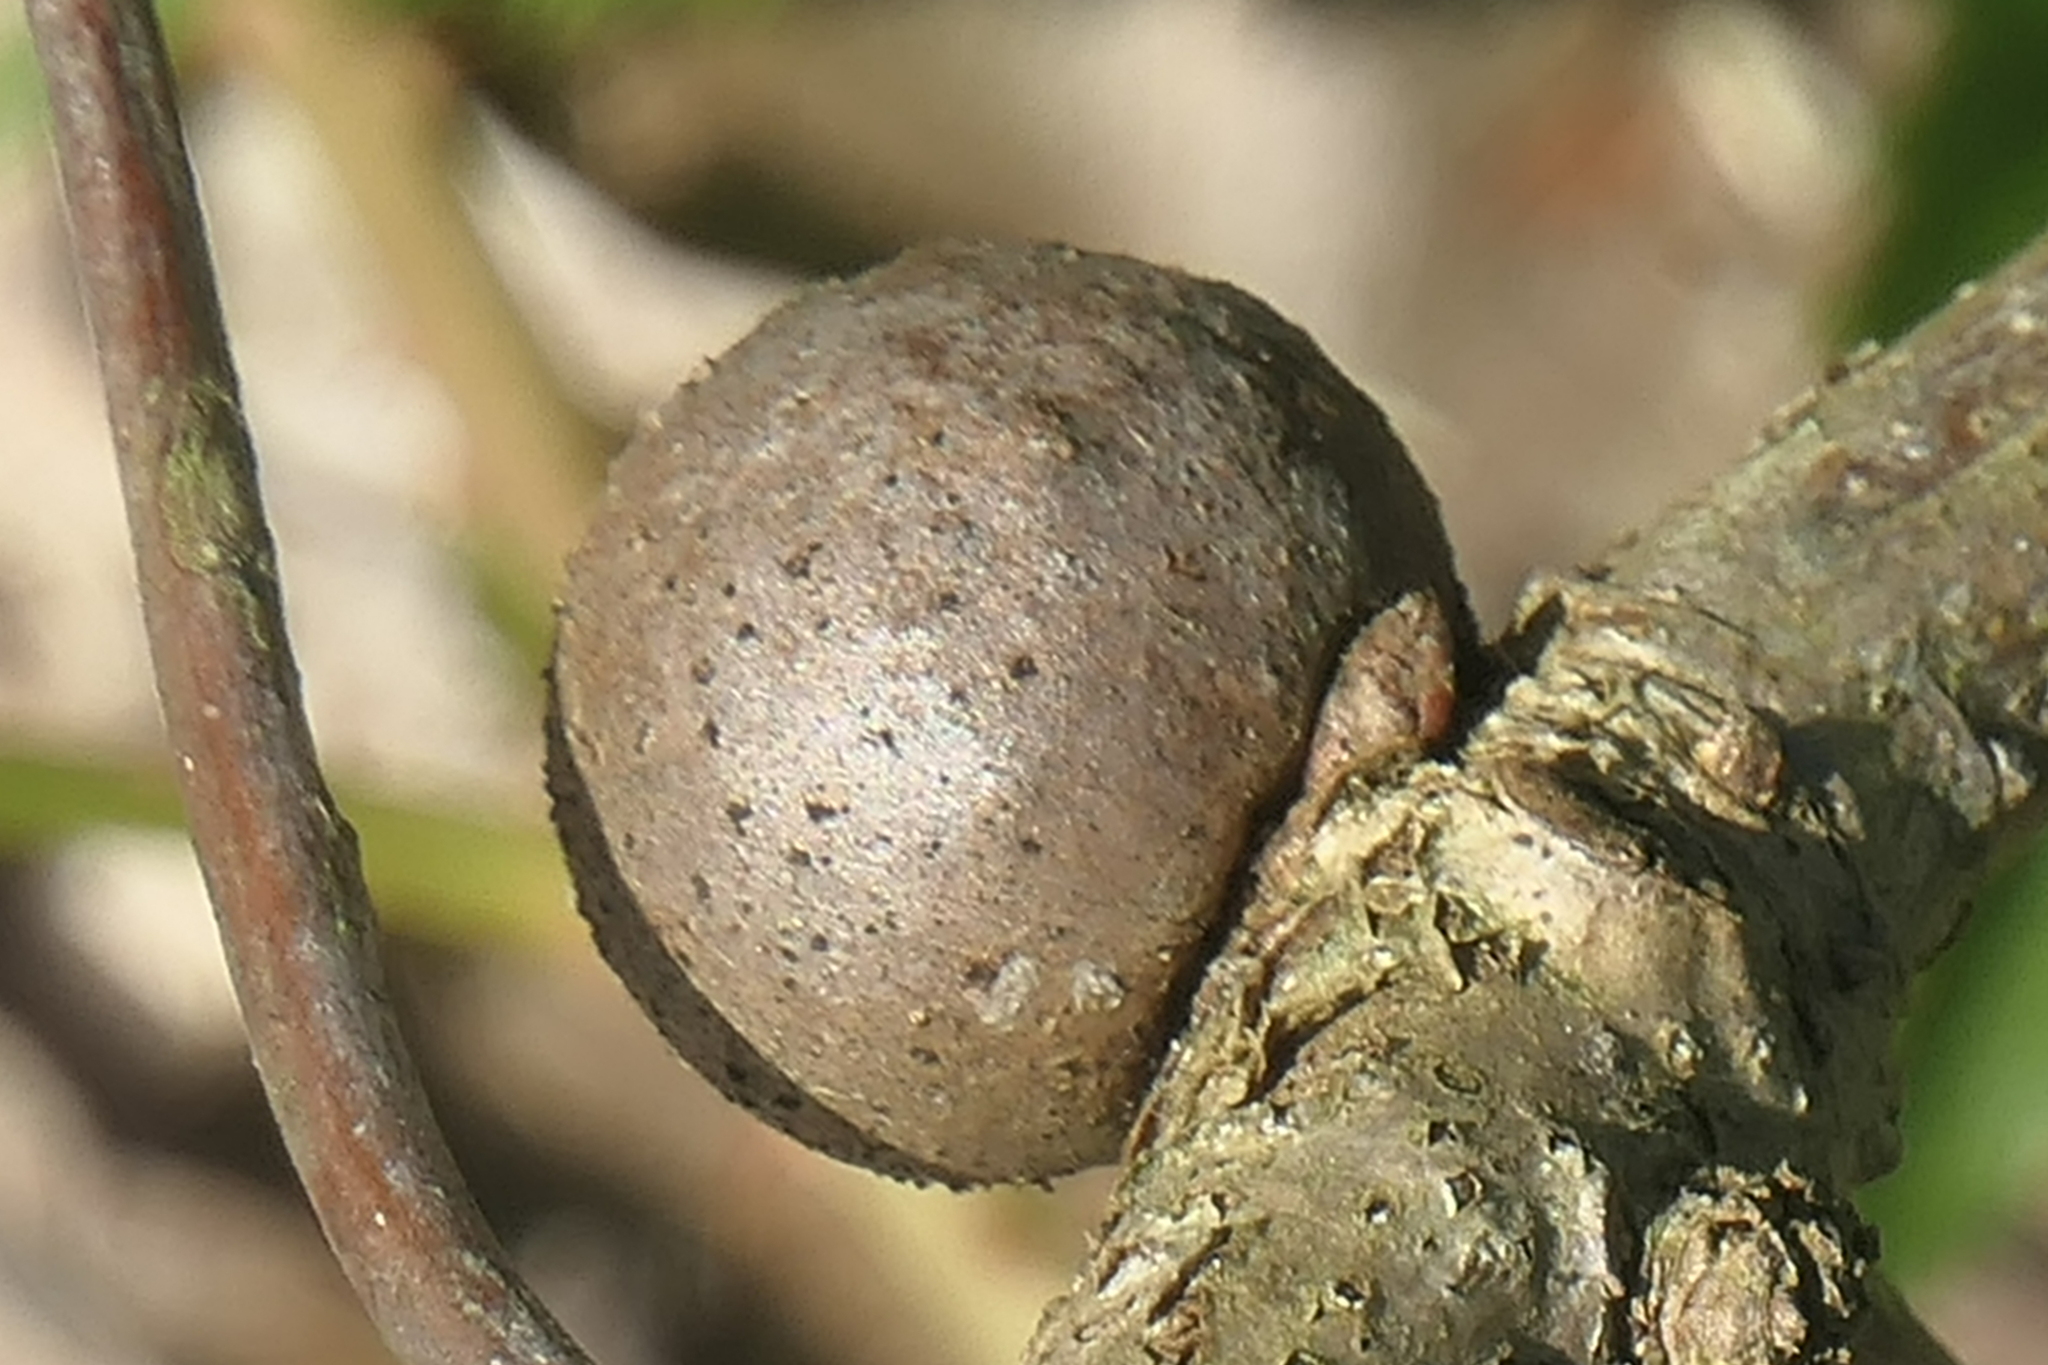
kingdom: Animalia
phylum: Arthropoda
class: Insecta
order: Hymenoptera
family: Cynipidae
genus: Disholcaspis
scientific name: Disholcaspis quercusglobulus
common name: Round bullet gall wasp
